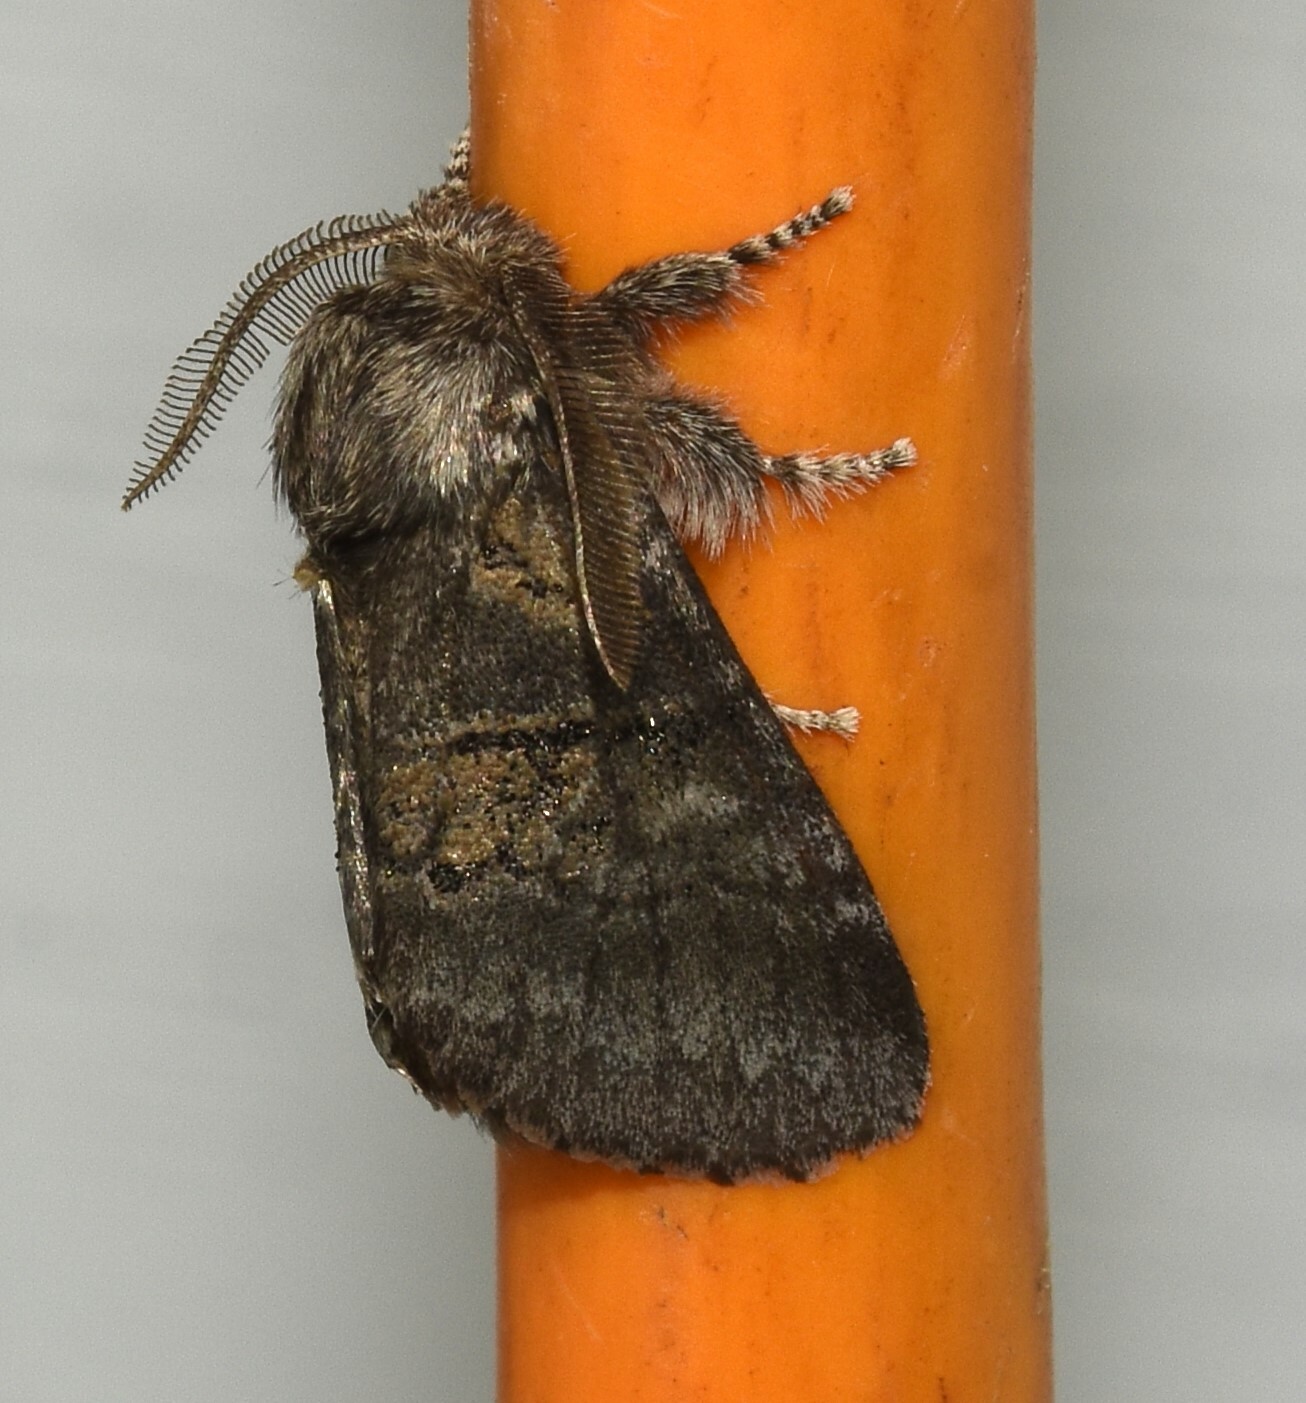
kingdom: Animalia
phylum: Arthropoda
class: Insecta
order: Lepidoptera
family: Notodontidae
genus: Gluphisia
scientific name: Gluphisia septentrionis
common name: Common gluphisia
